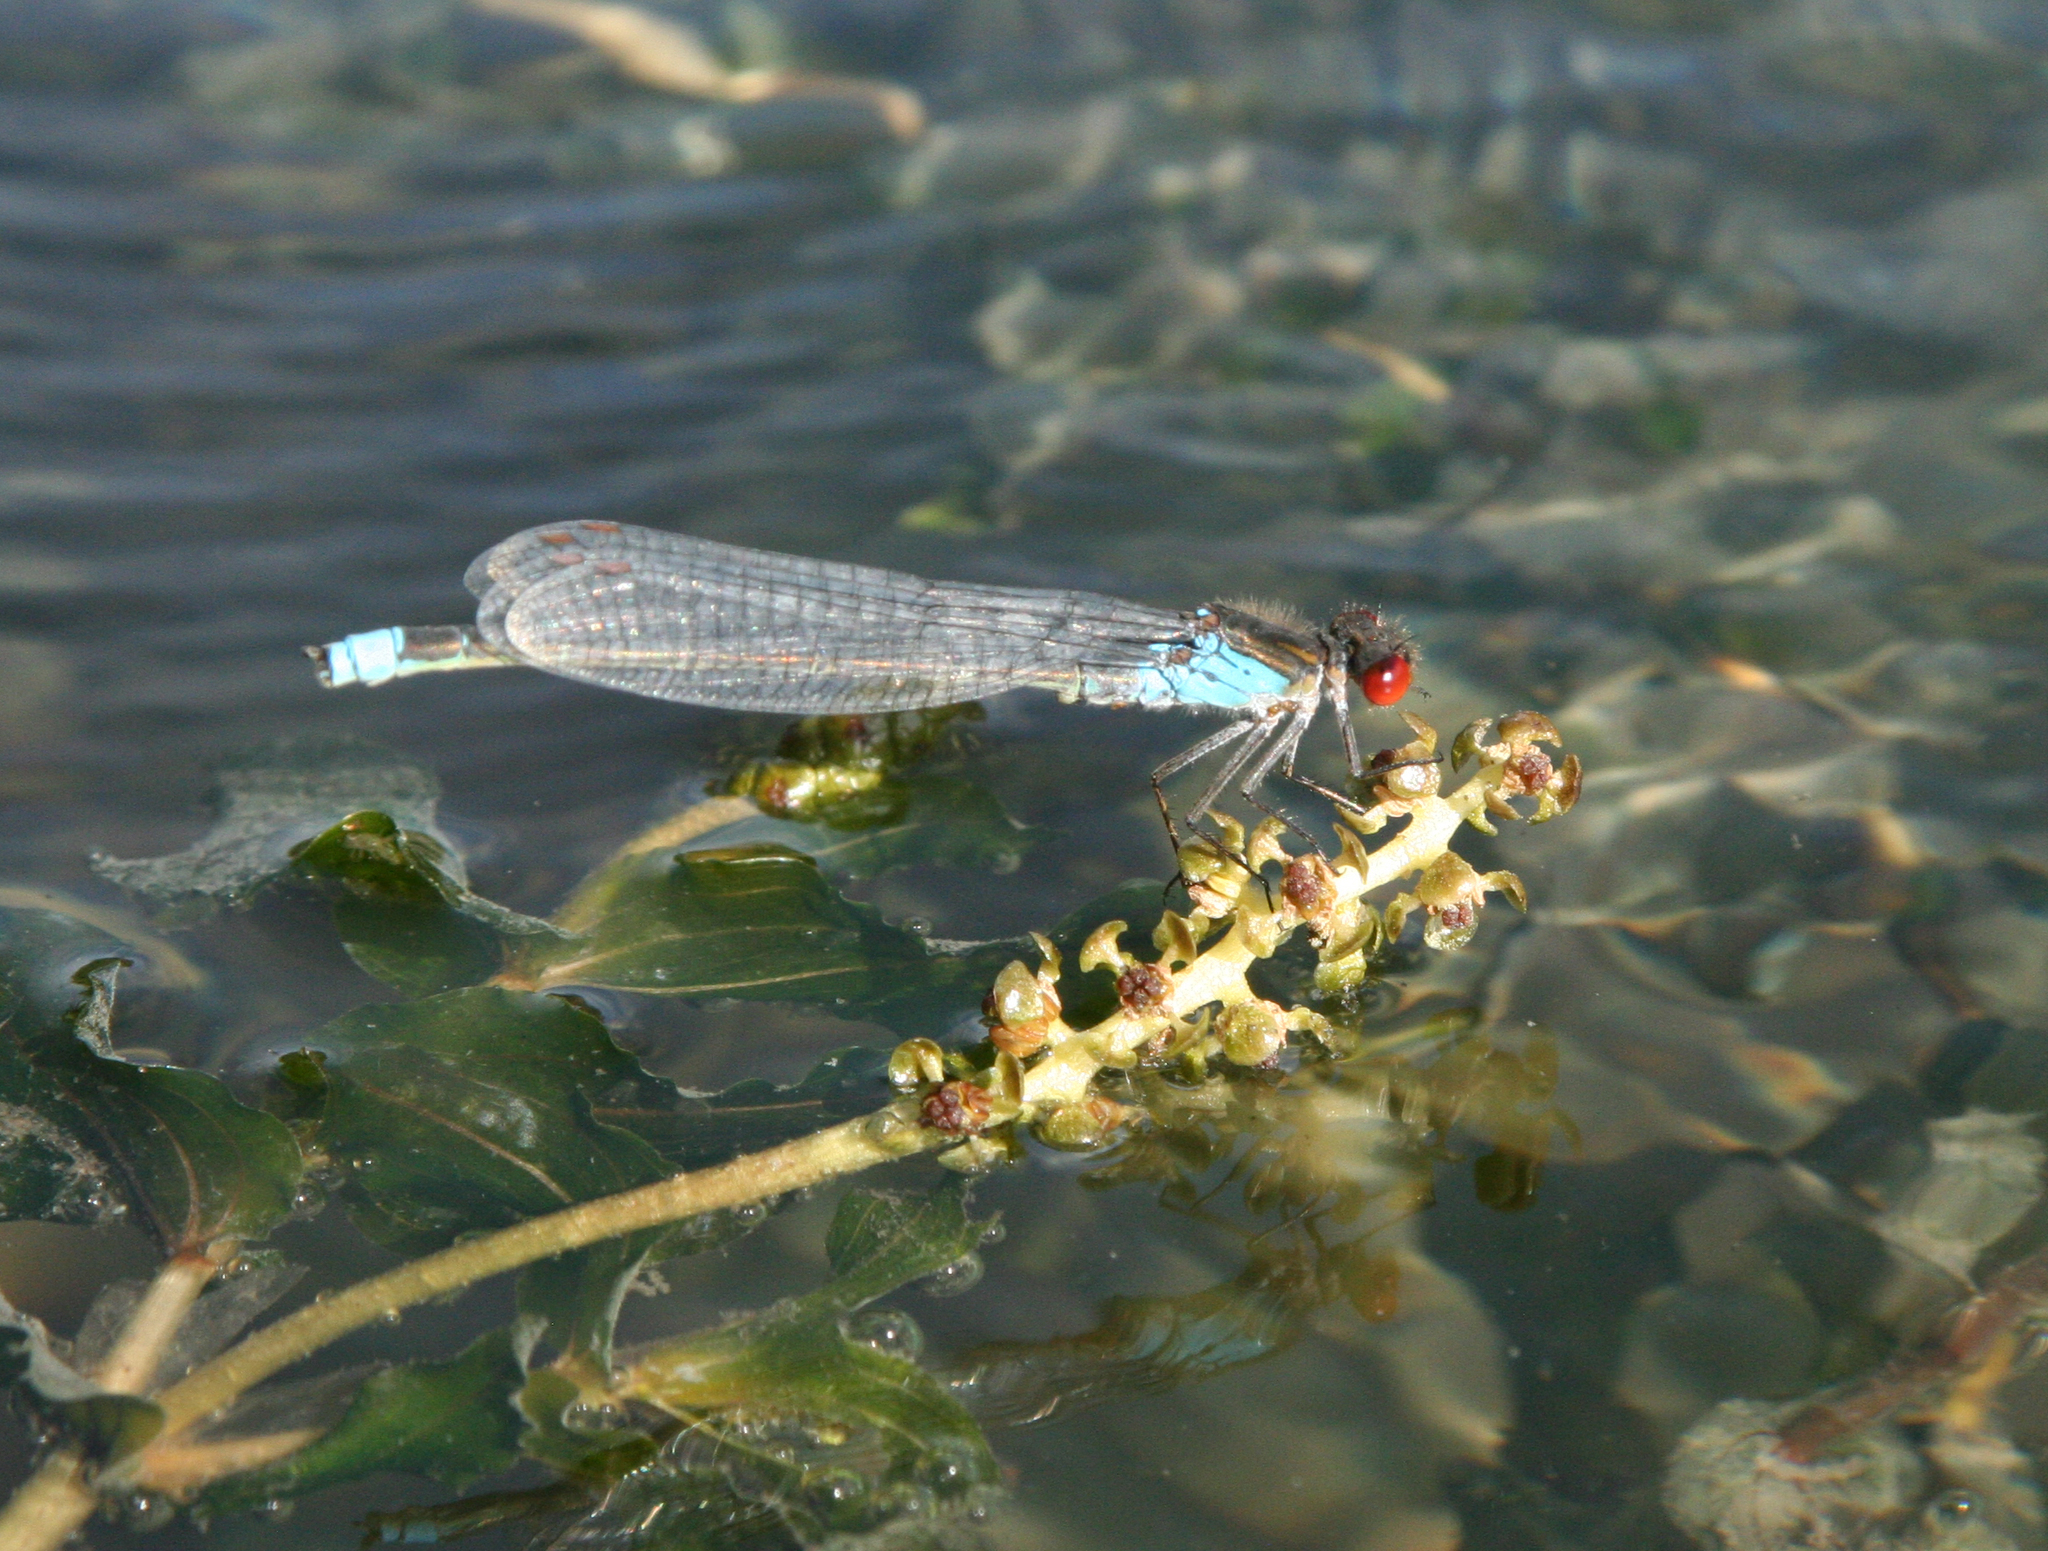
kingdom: Plantae
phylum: Tracheophyta
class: Liliopsida
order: Alismatales
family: Potamogetonaceae
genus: Potamogeton
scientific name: Potamogeton perfoliatus
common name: Perfoliate pondweed
